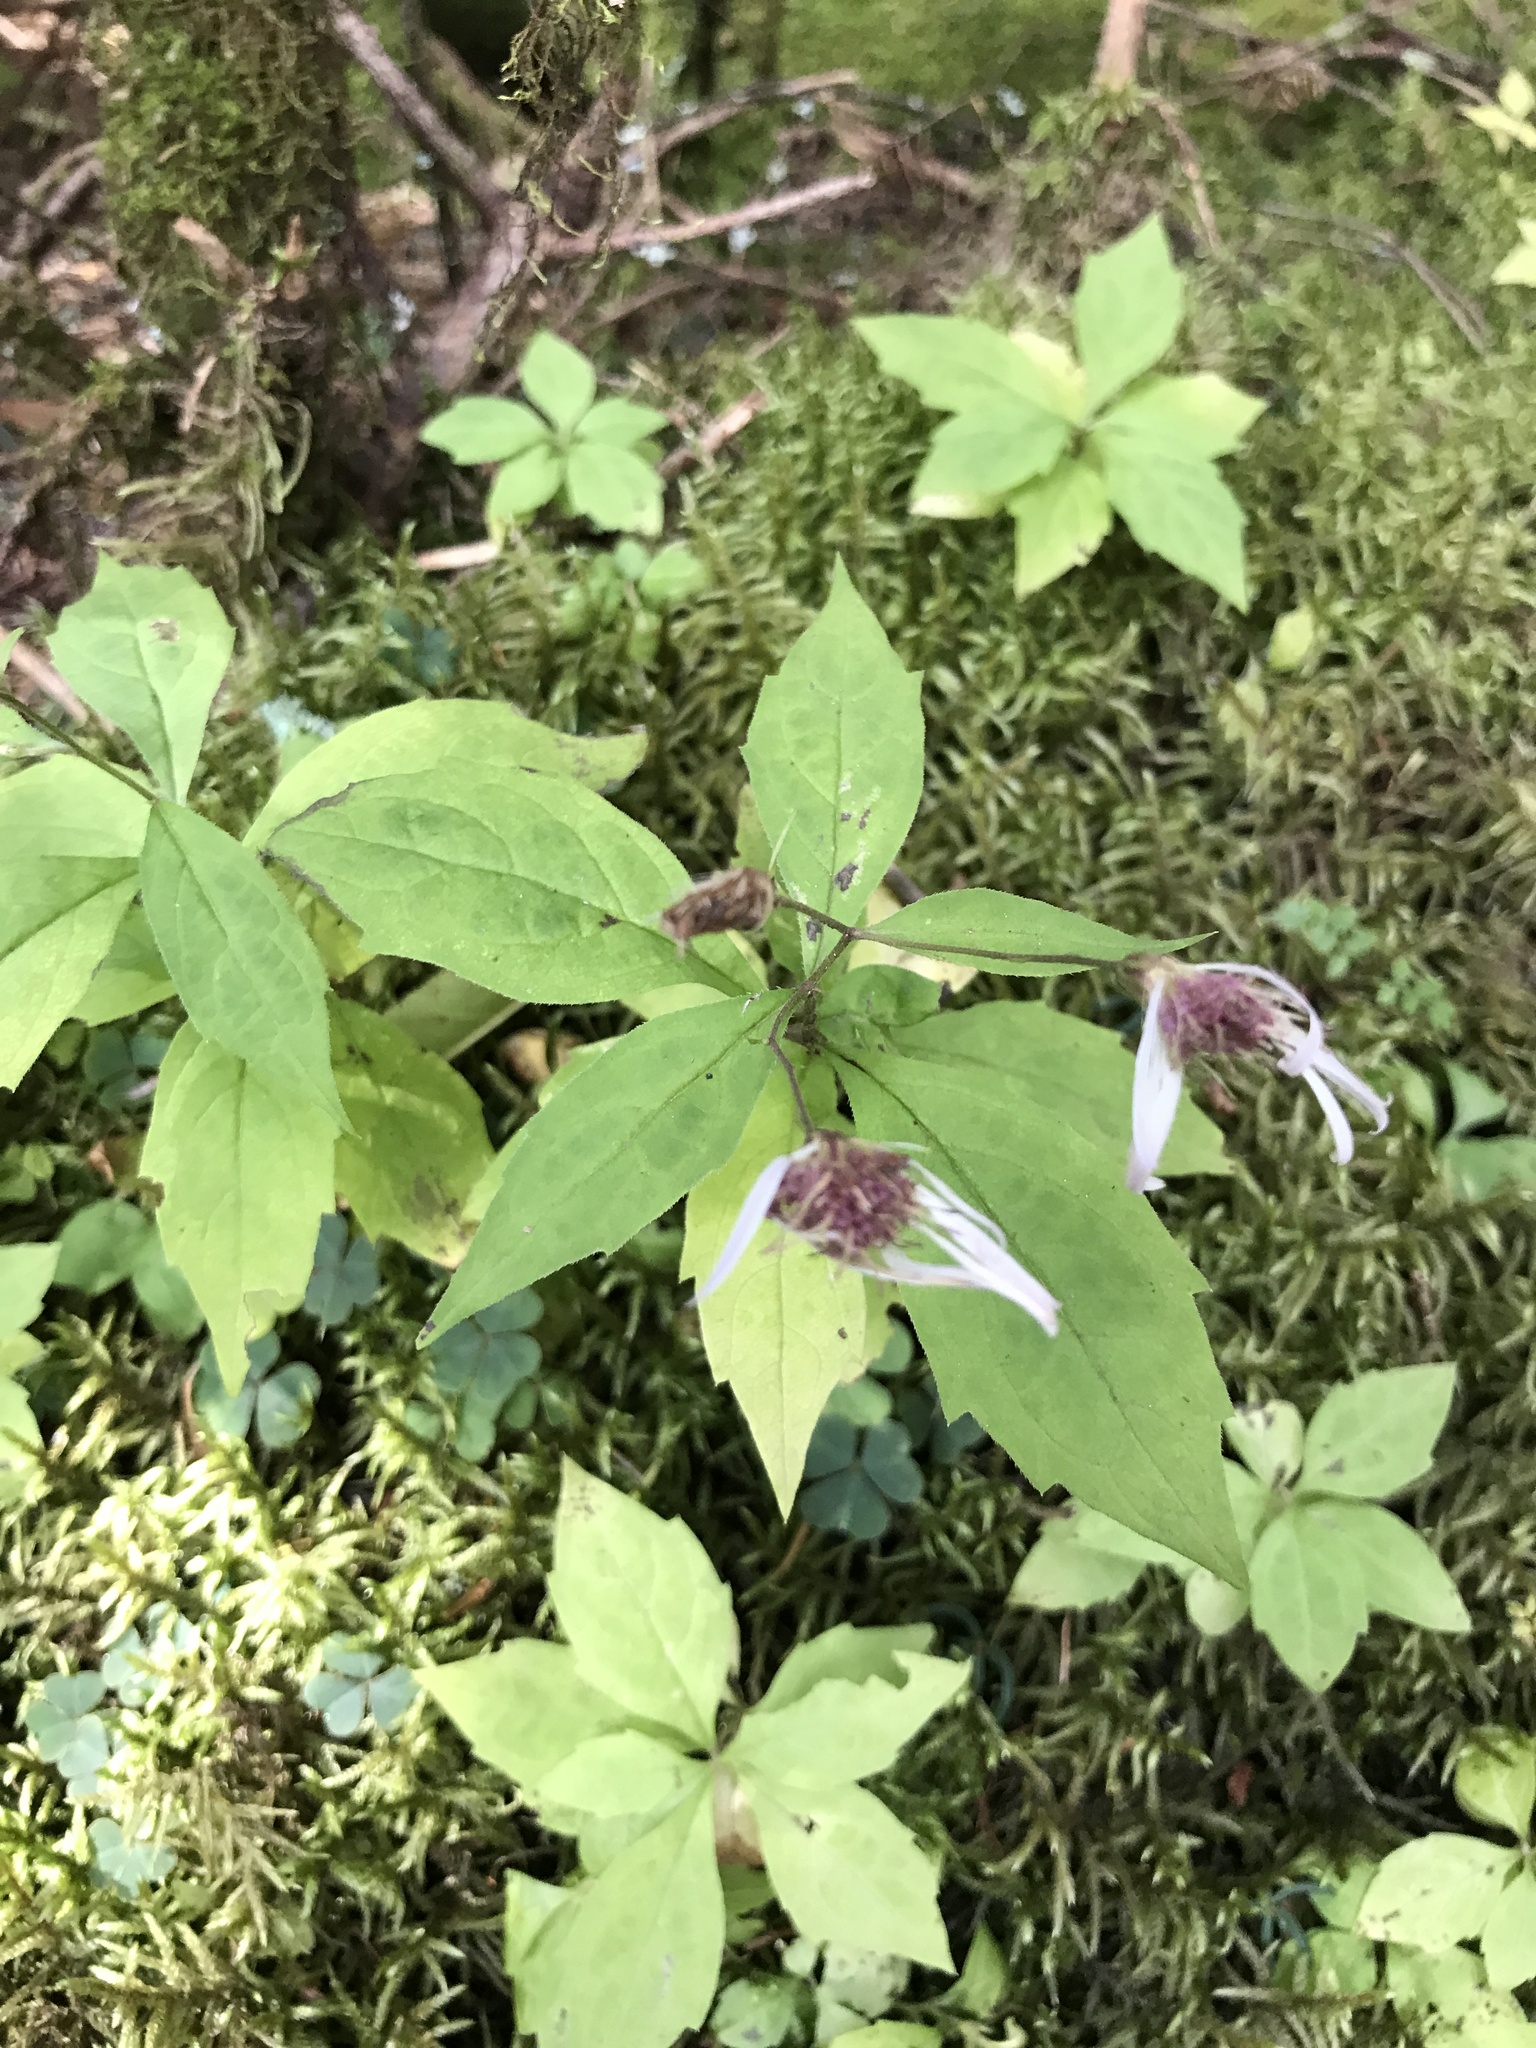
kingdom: Plantae
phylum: Tracheophyta
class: Magnoliopsida
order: Asterales
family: Asteraceae
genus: Oclemena
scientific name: Oclemena acuminata
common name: Mountain aster
